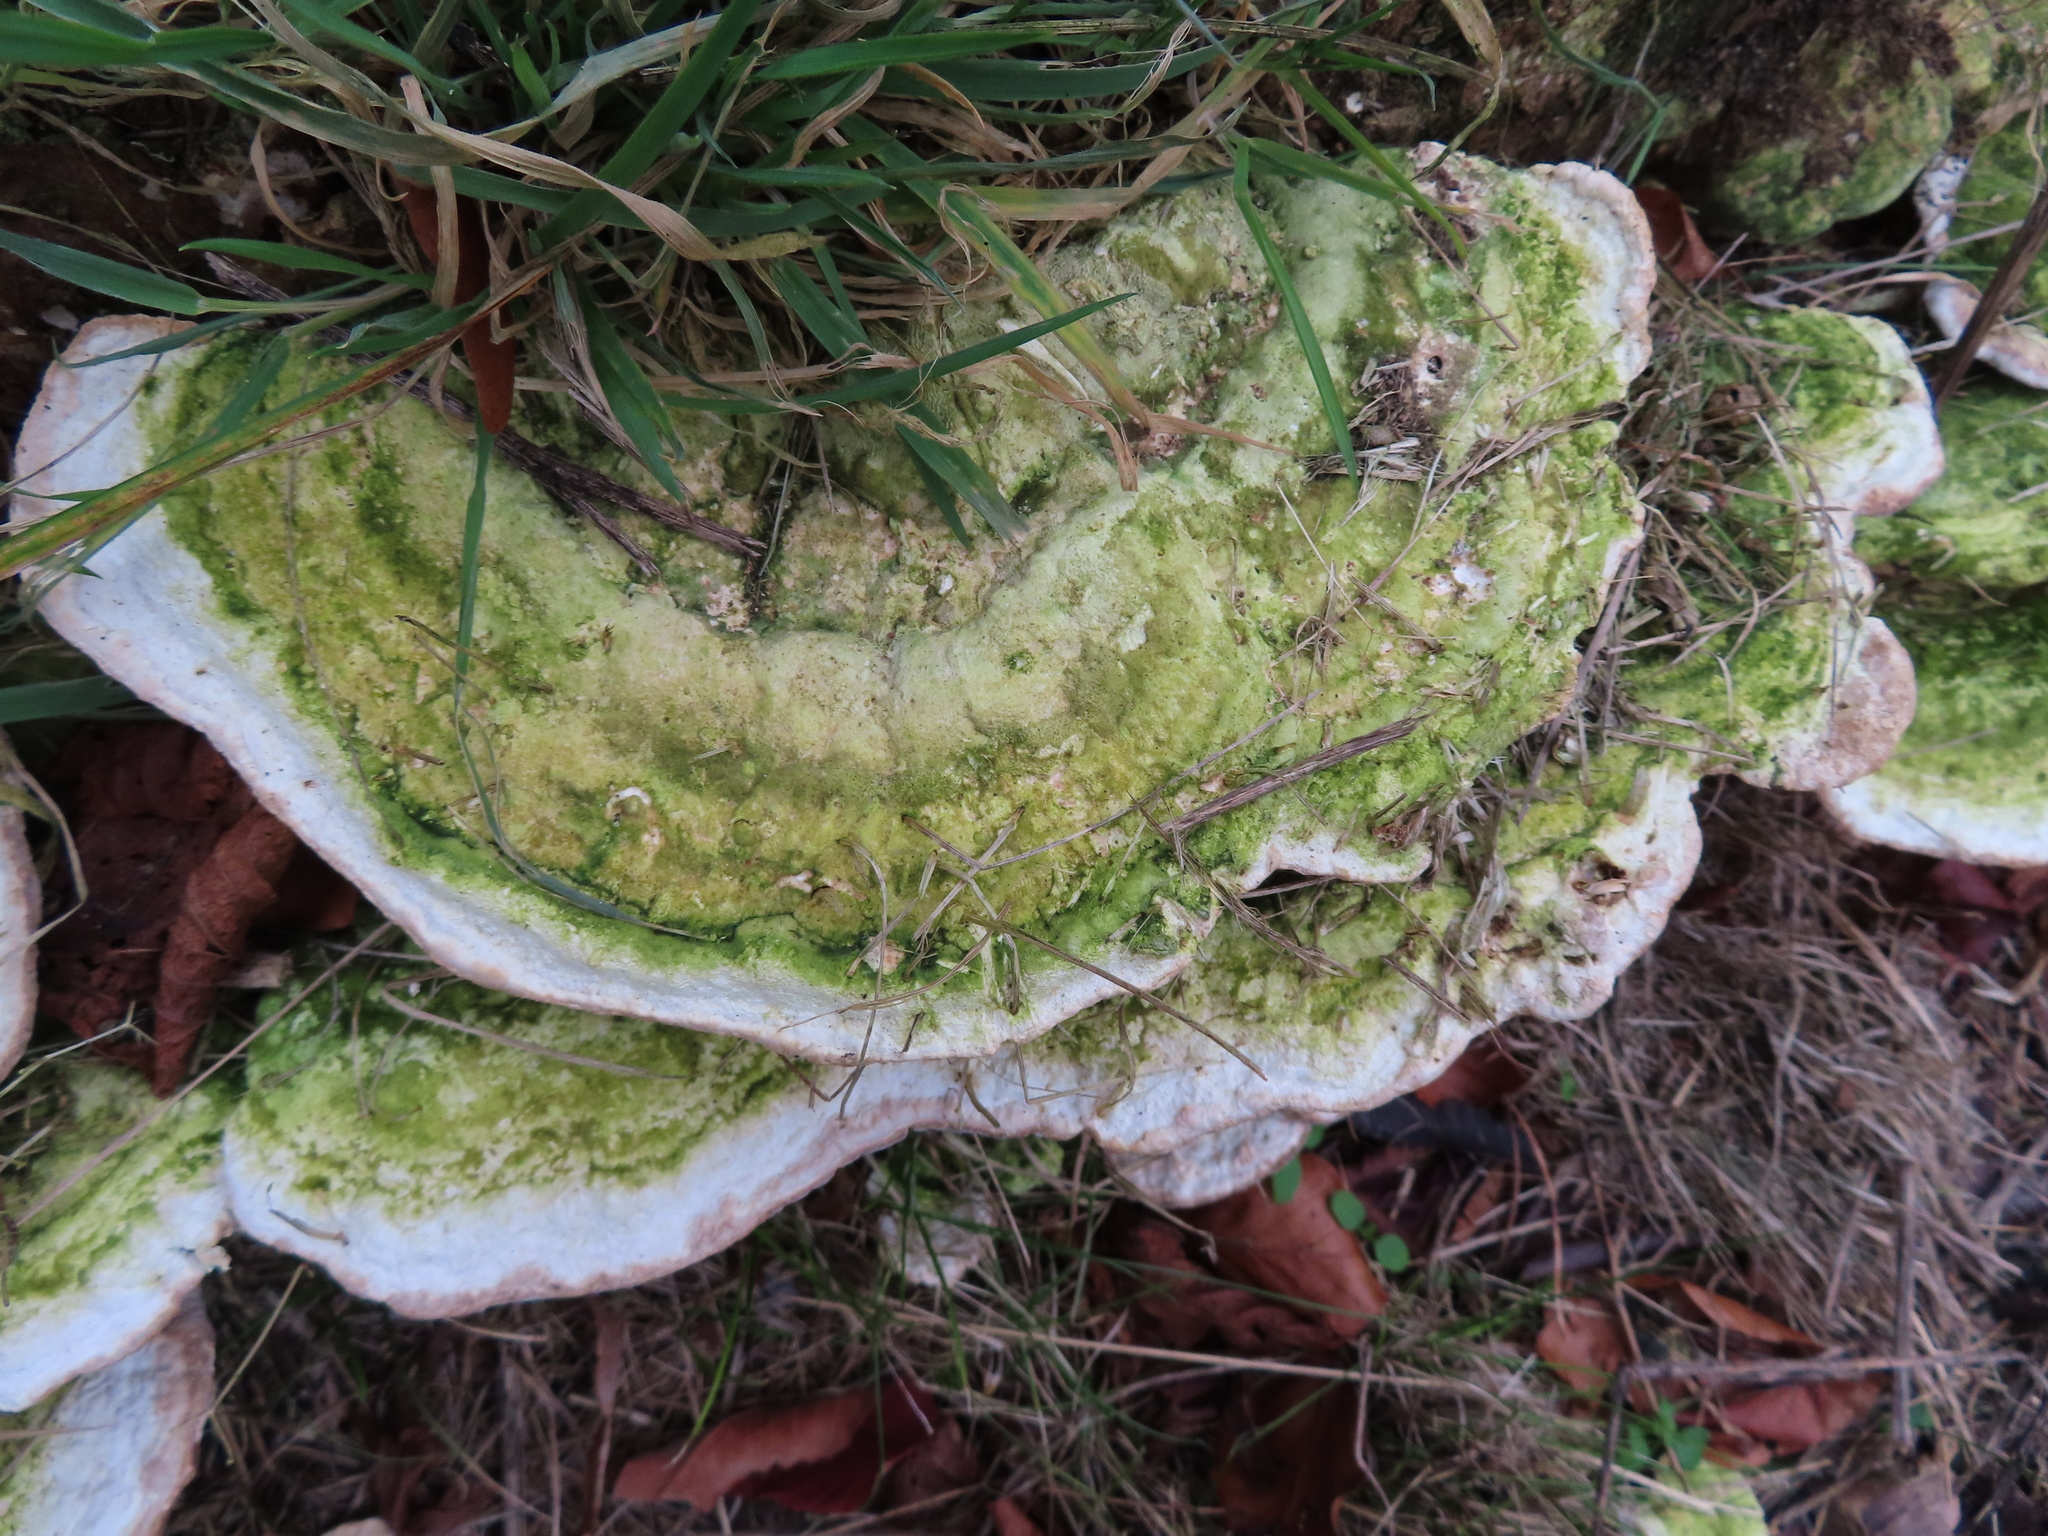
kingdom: Fungi
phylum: Basidiomycota
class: Agaricomycetes
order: Polyporales
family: Polyporaceae
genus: Trametes
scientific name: Trametes gibbosa
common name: Lumpy bracket
